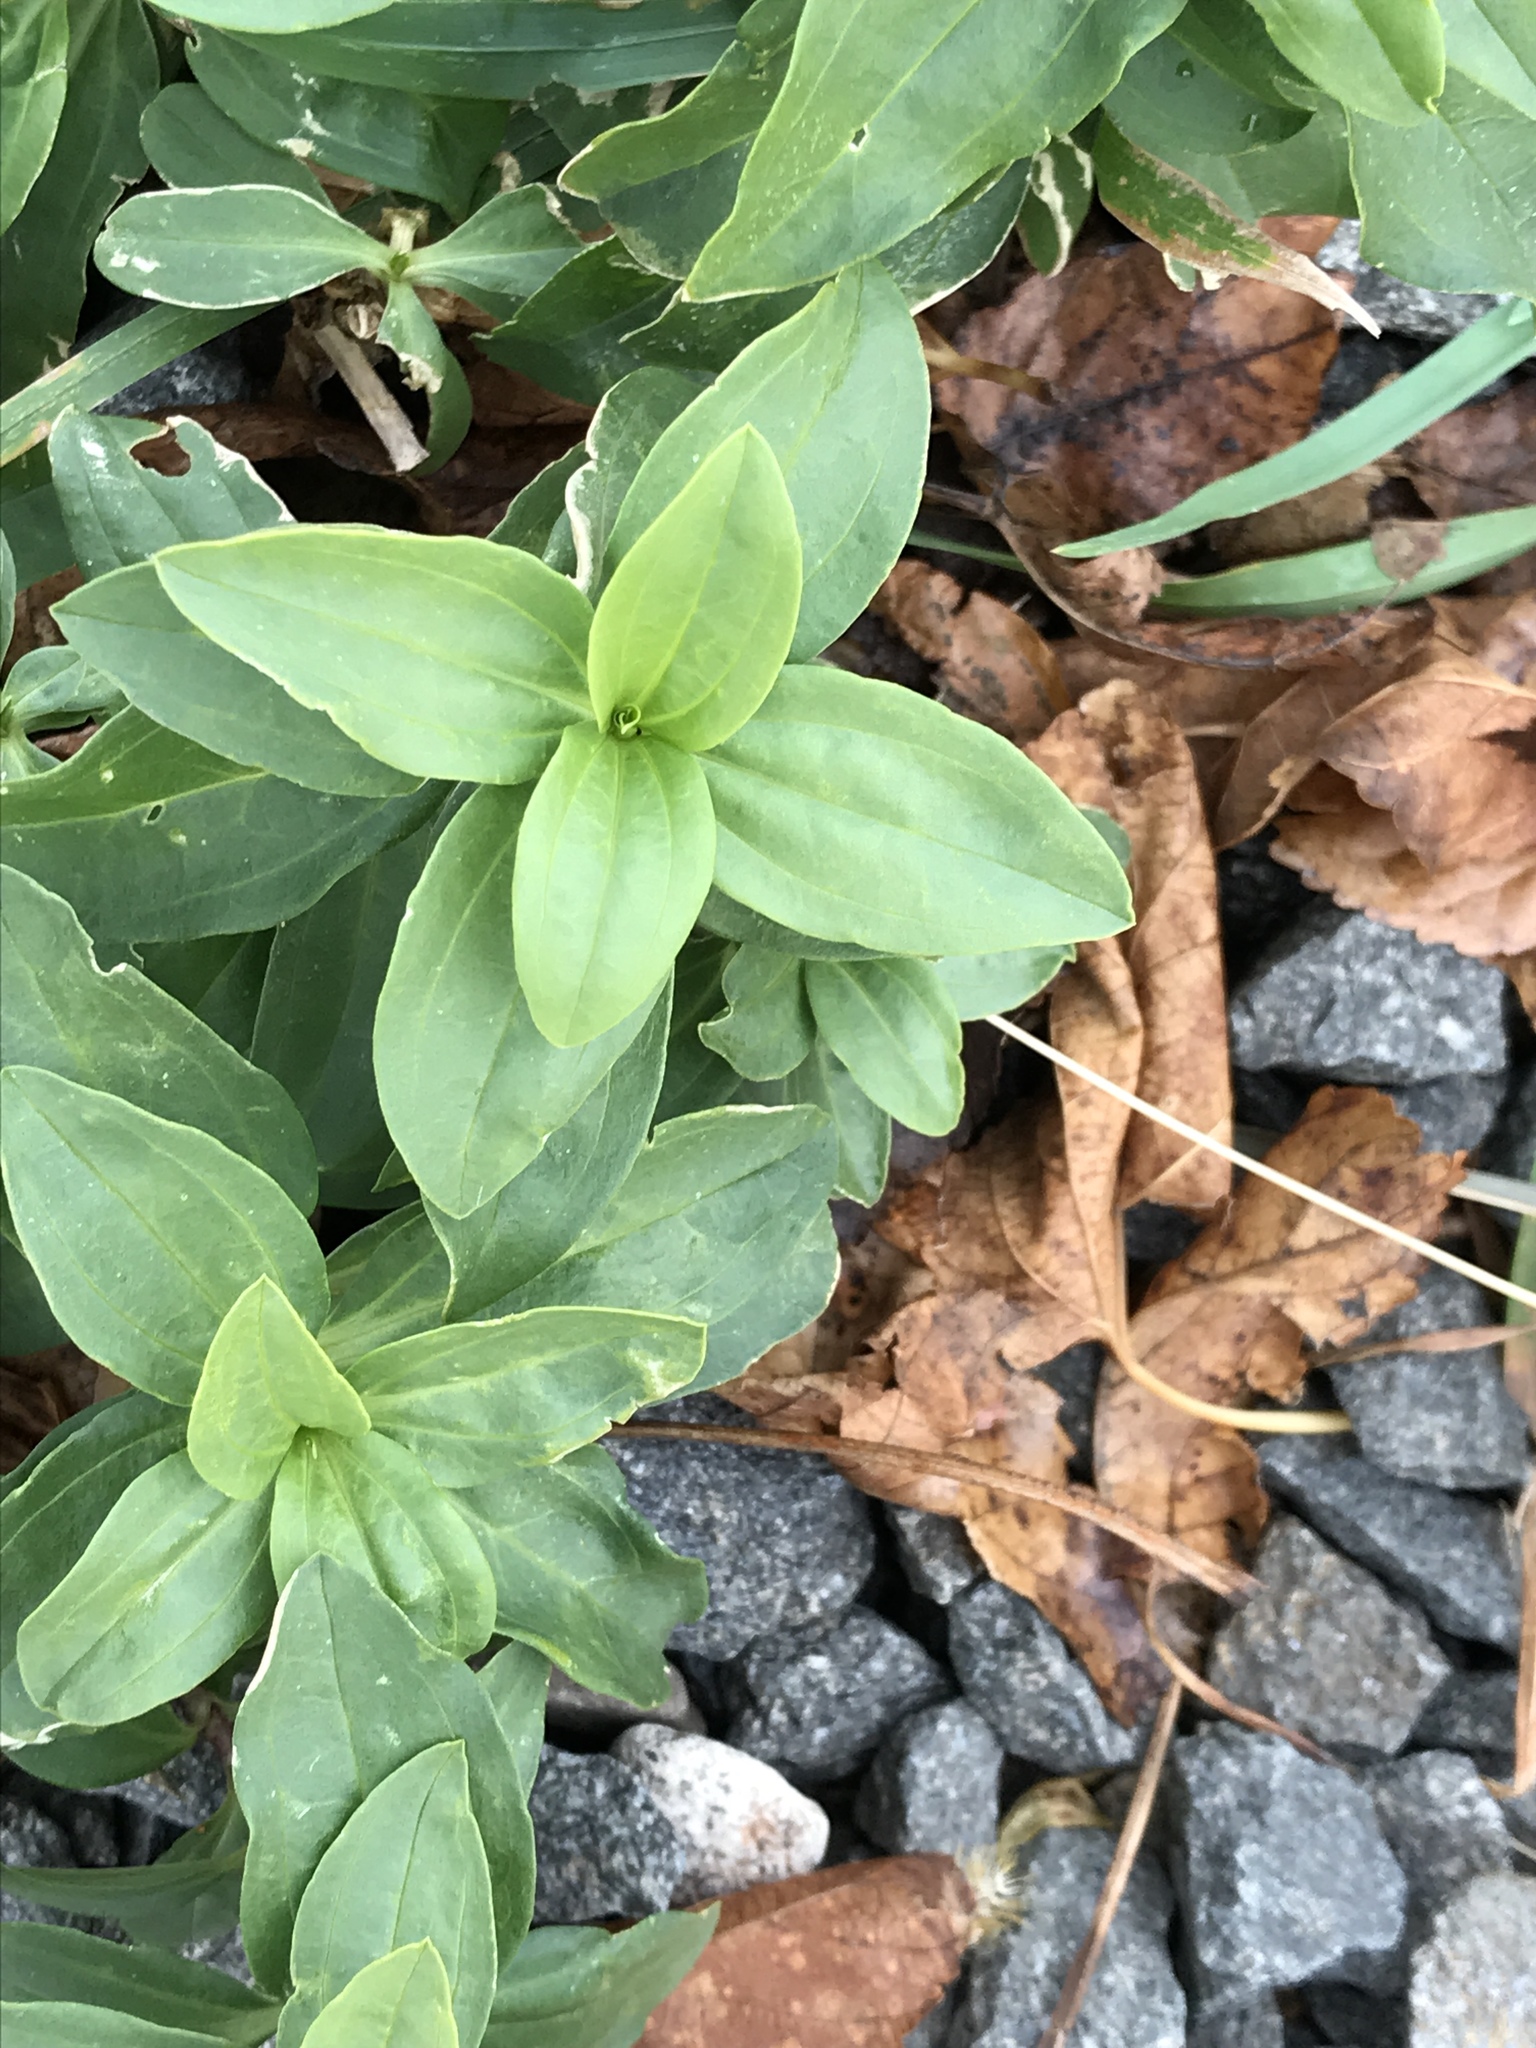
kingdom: Plantae
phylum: Tracheophyta
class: Magnoliopsida
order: Caryophyllales
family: Caryophyllaceae
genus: Saponaria
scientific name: Saponaria officinalis
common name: Soapwort
